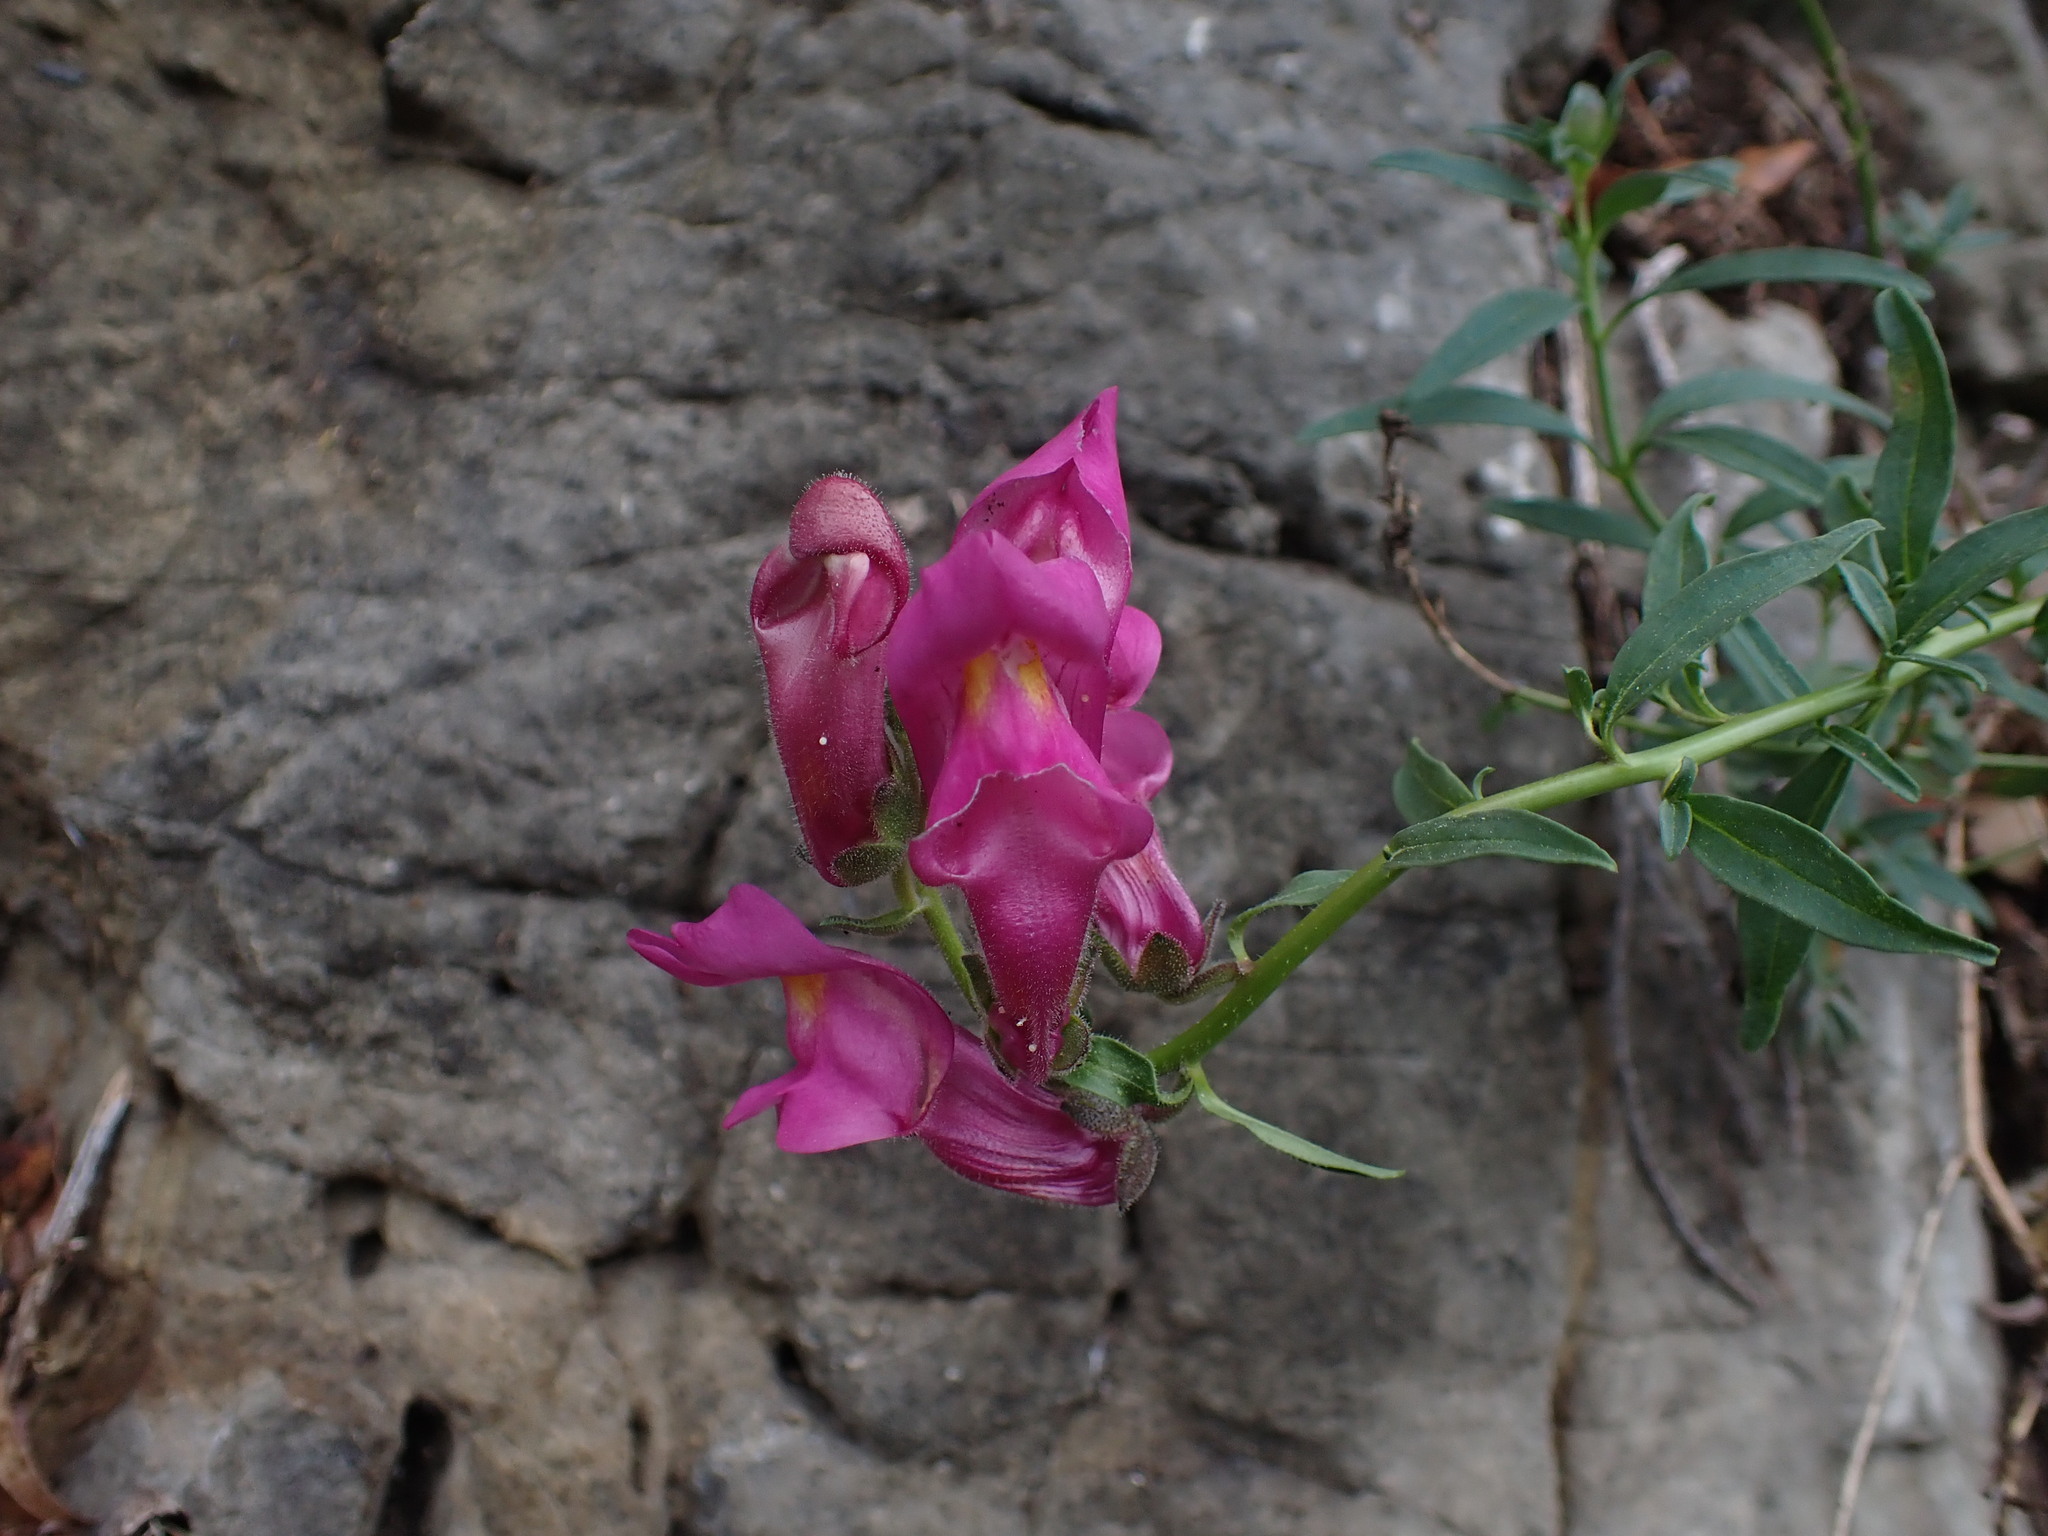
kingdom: Plantae
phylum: Tracheophyta
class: Magnoliopsida
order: Lamiales
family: Plantaginaceae
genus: Antirrhinum
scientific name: Antirrhinum majus
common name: Snapdragon
